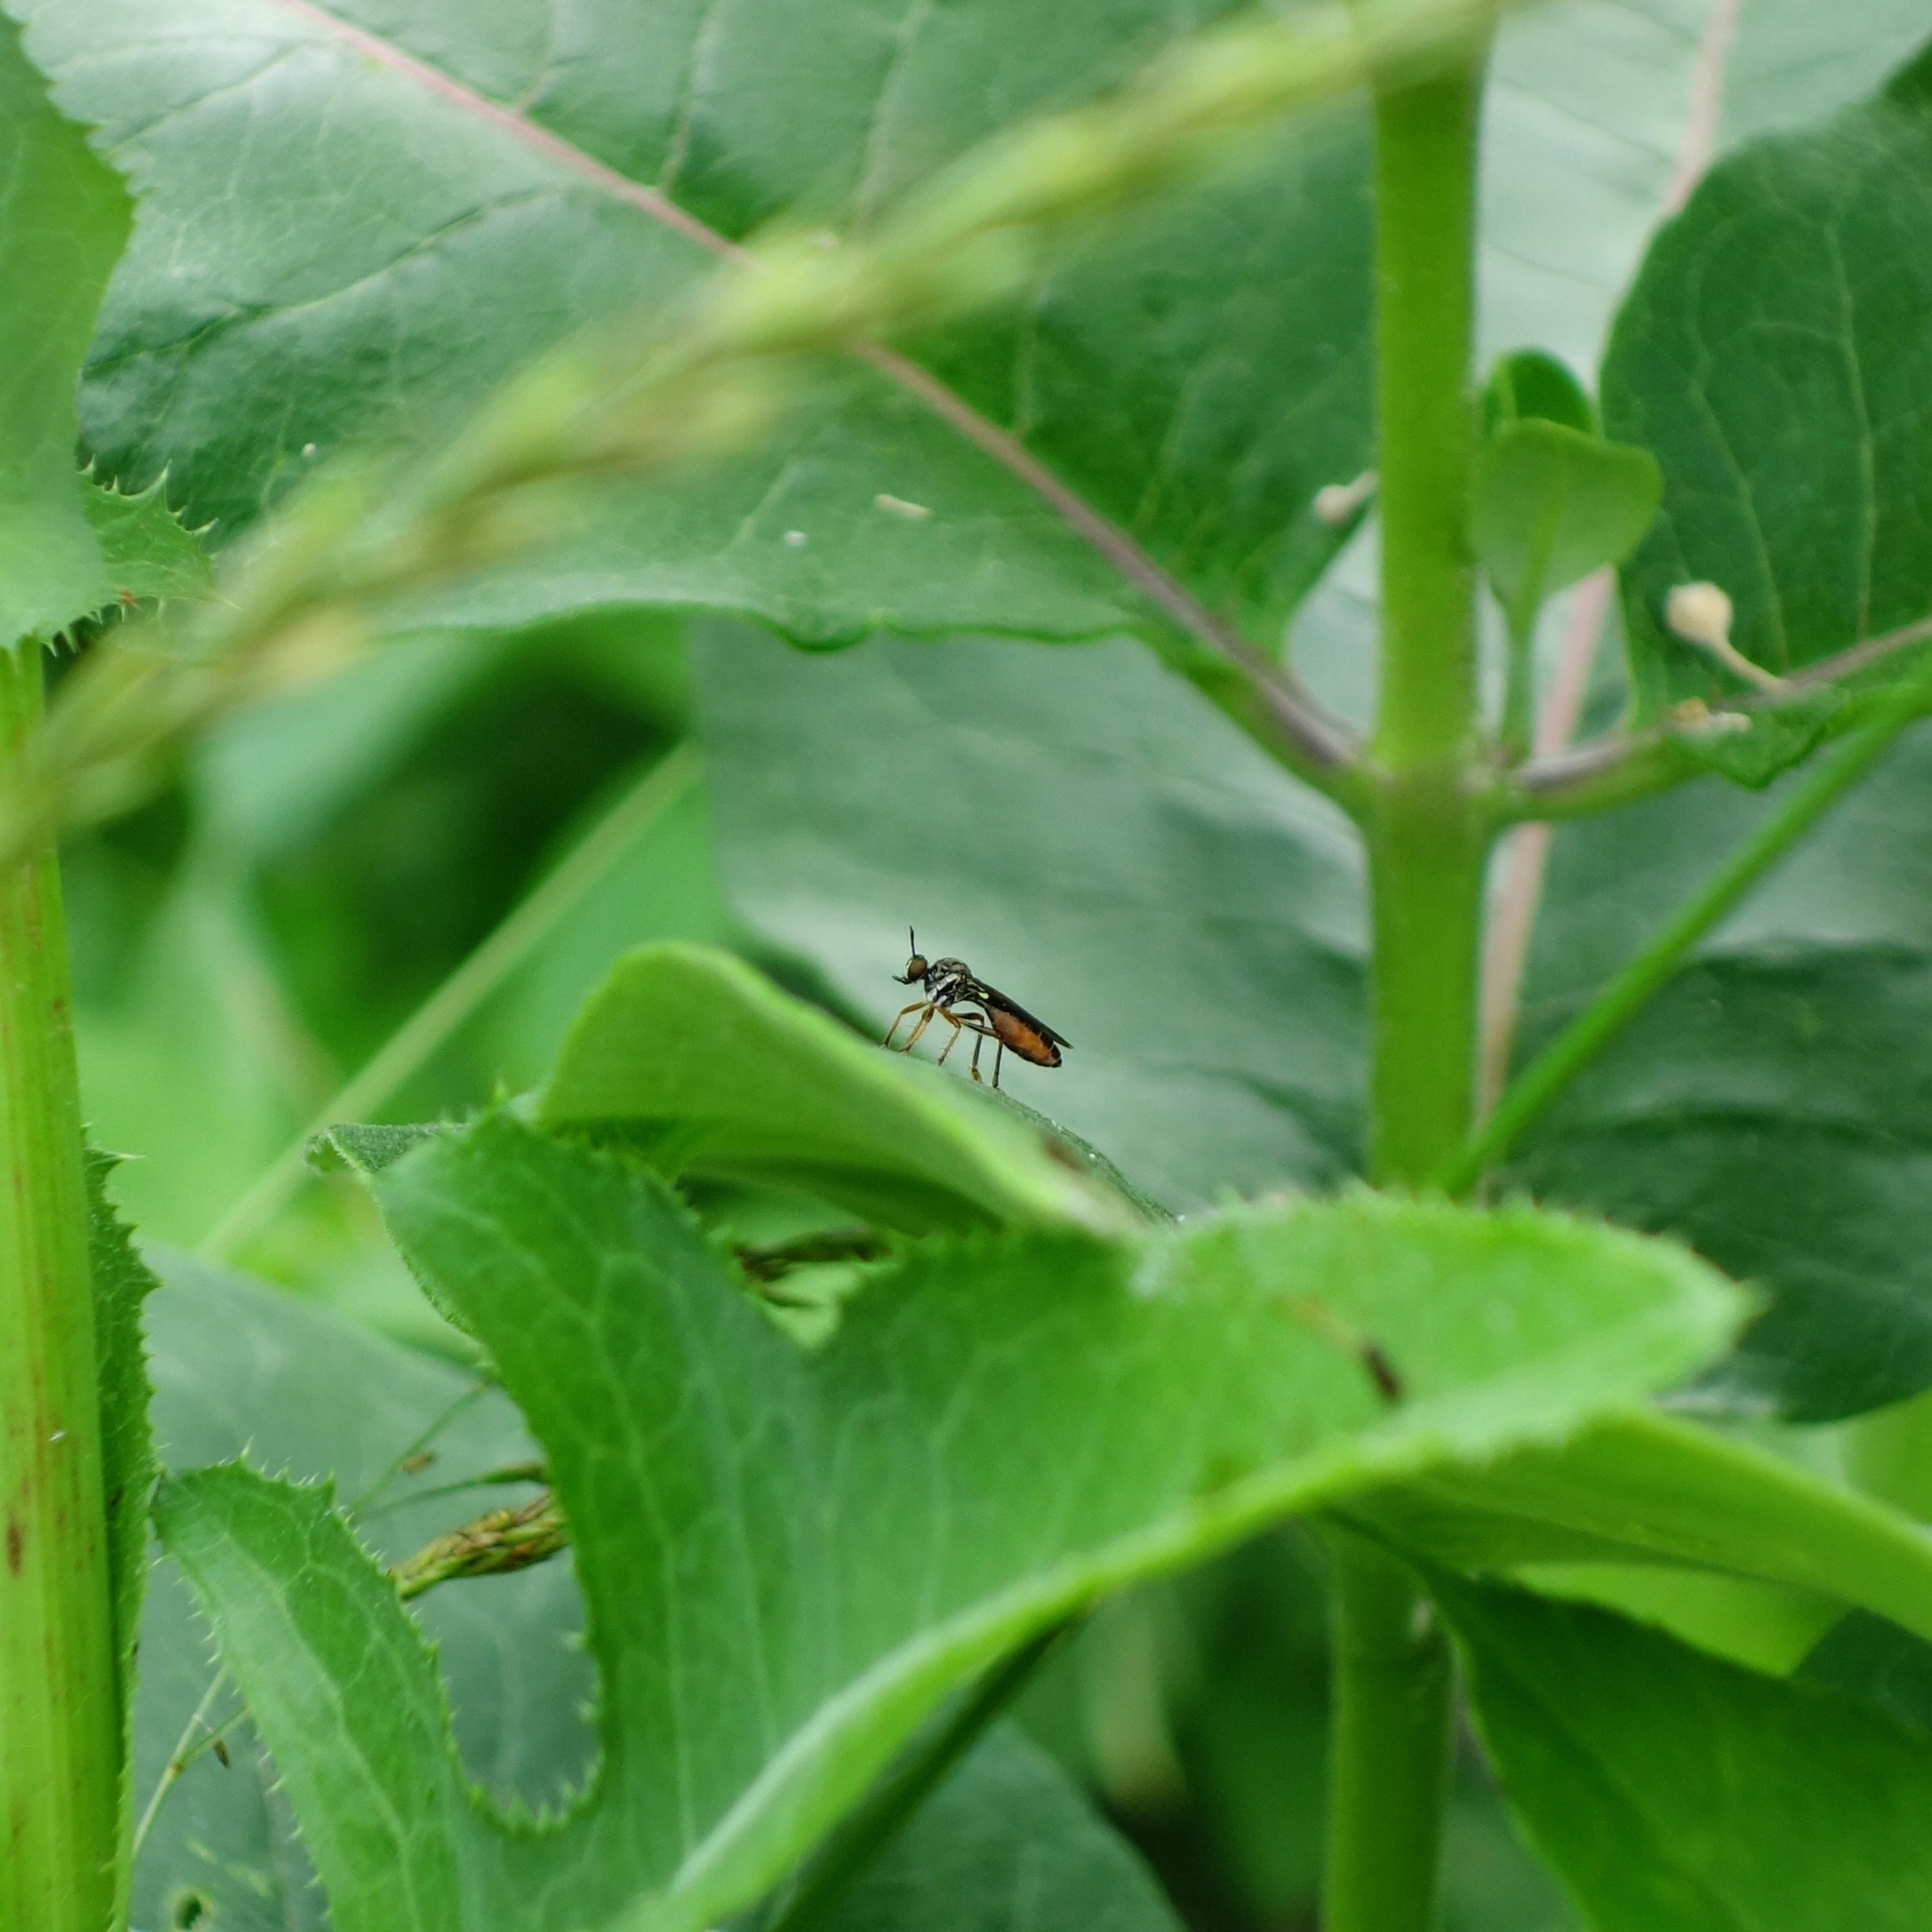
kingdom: Animalia
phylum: Arthropoda
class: Insecta
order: Diptera
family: Asilidae
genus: Dioctria
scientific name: Dioctria hyalipennis
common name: Stripe-legged robberfly
